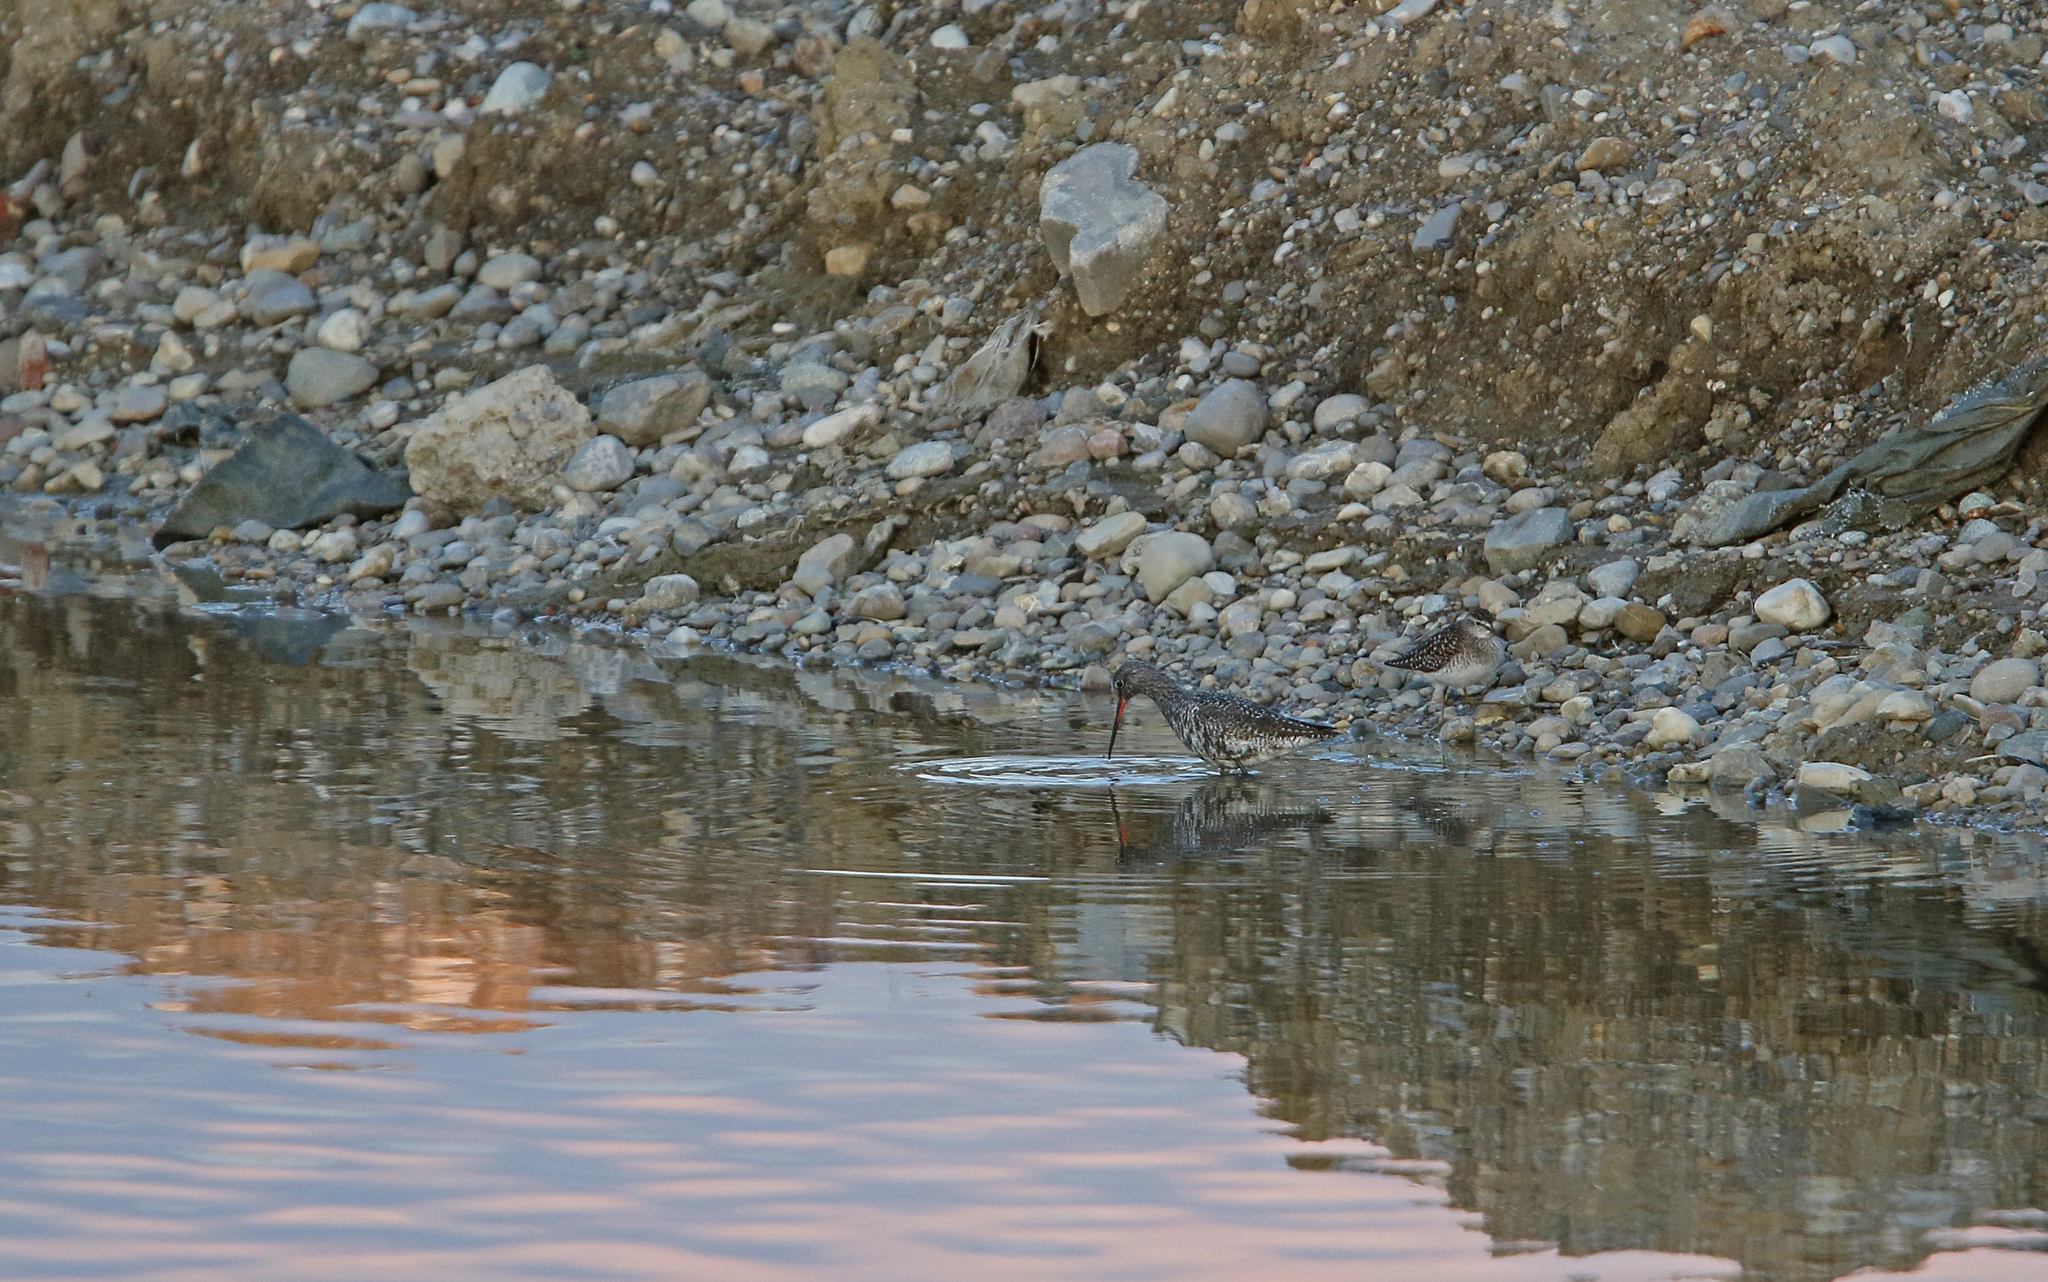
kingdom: Animalia
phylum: Chordata
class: Aves
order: Charadriiformes
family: Scolopacidae
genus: Tringa
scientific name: Tringa glareola
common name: Wood sandpiper
